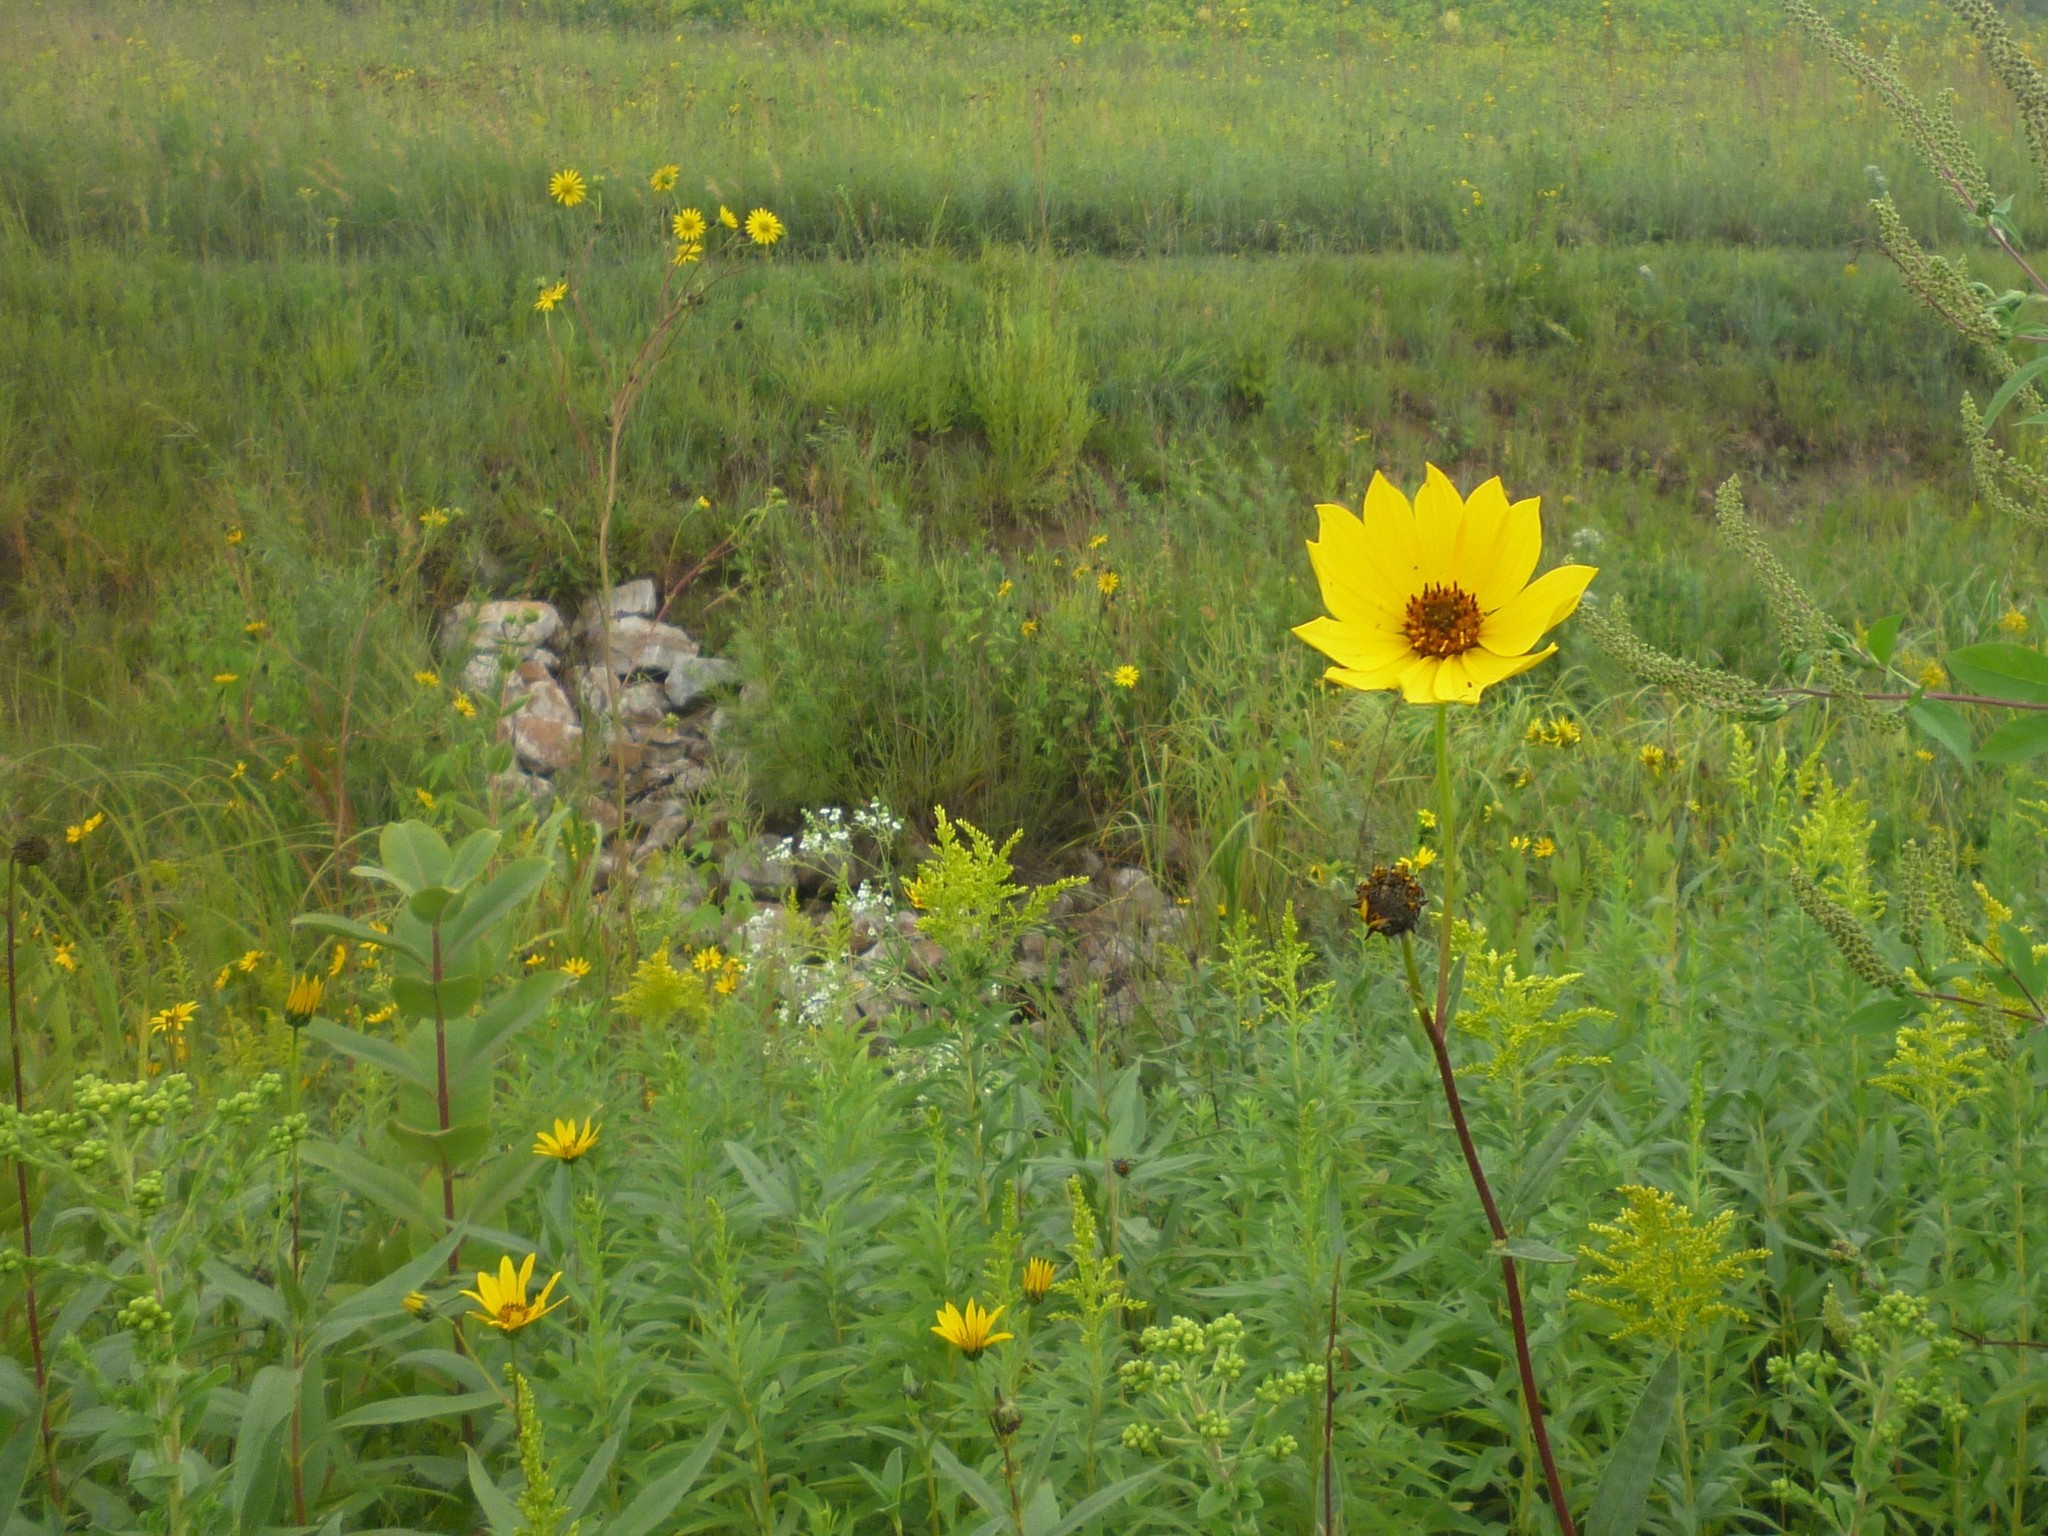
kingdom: Plantae
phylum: Tracheophyta
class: Magnoliopsida
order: Gentianales
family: Apocynaceae
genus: Asclepias
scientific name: Asclepias syriaca
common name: Common milkweed
